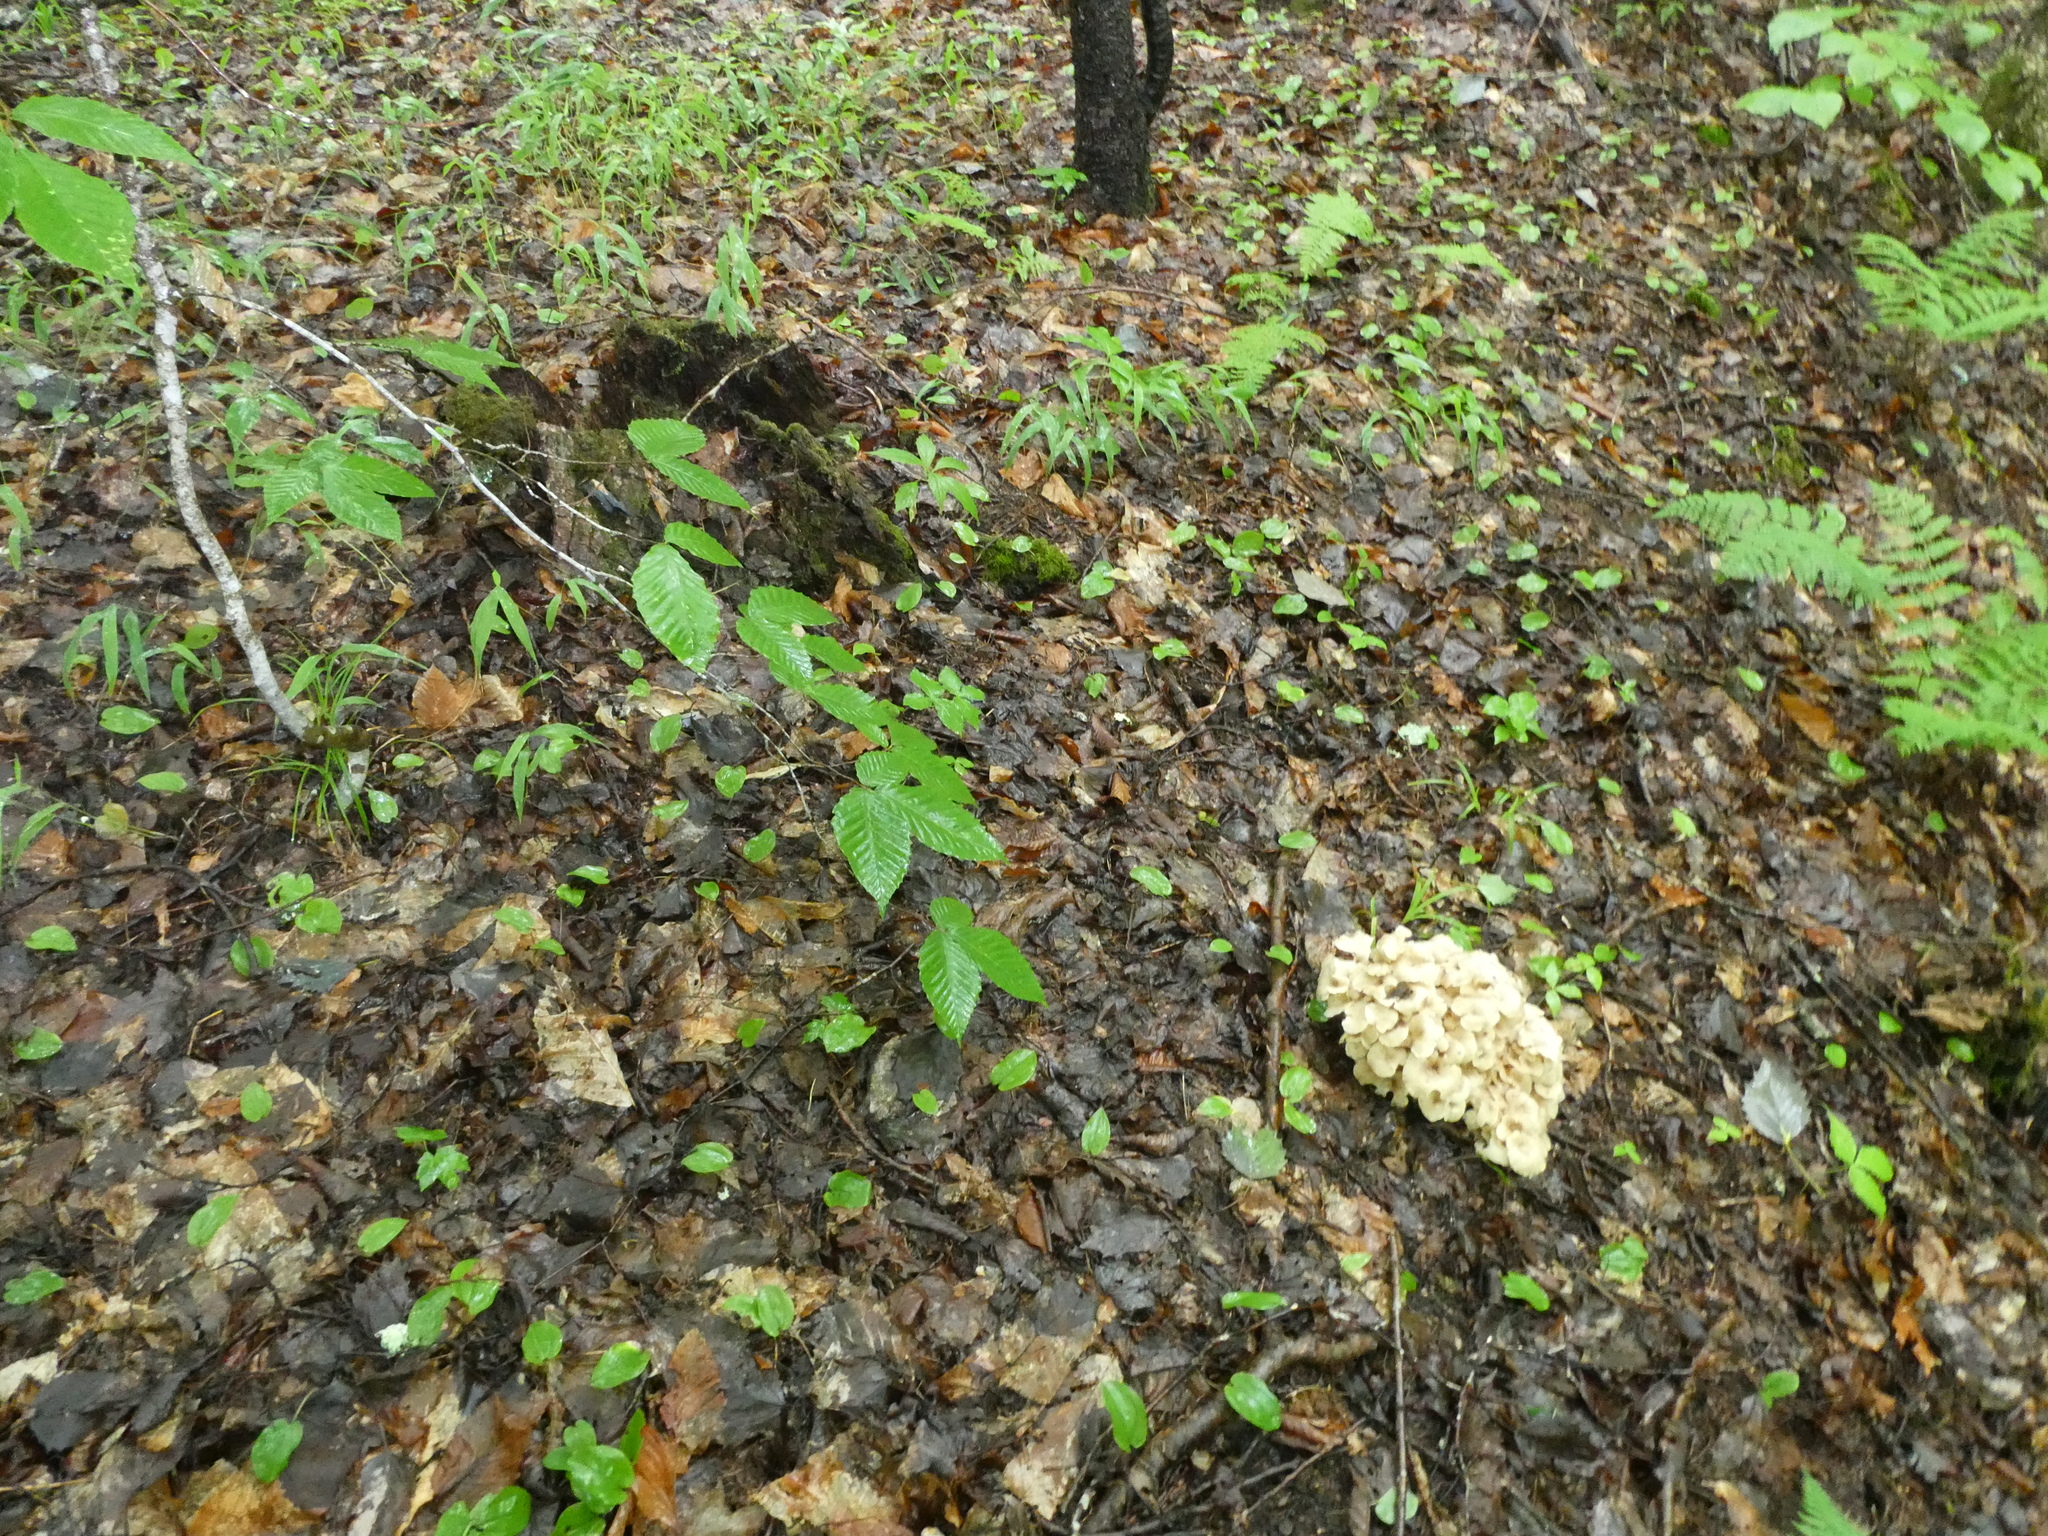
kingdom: Fungi
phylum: Basidiomycota
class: Agaricomycetes
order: Polyporales
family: Polyporaceae
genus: Polyporus
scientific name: Polyporus umbellatus
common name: Umbrella polypore
